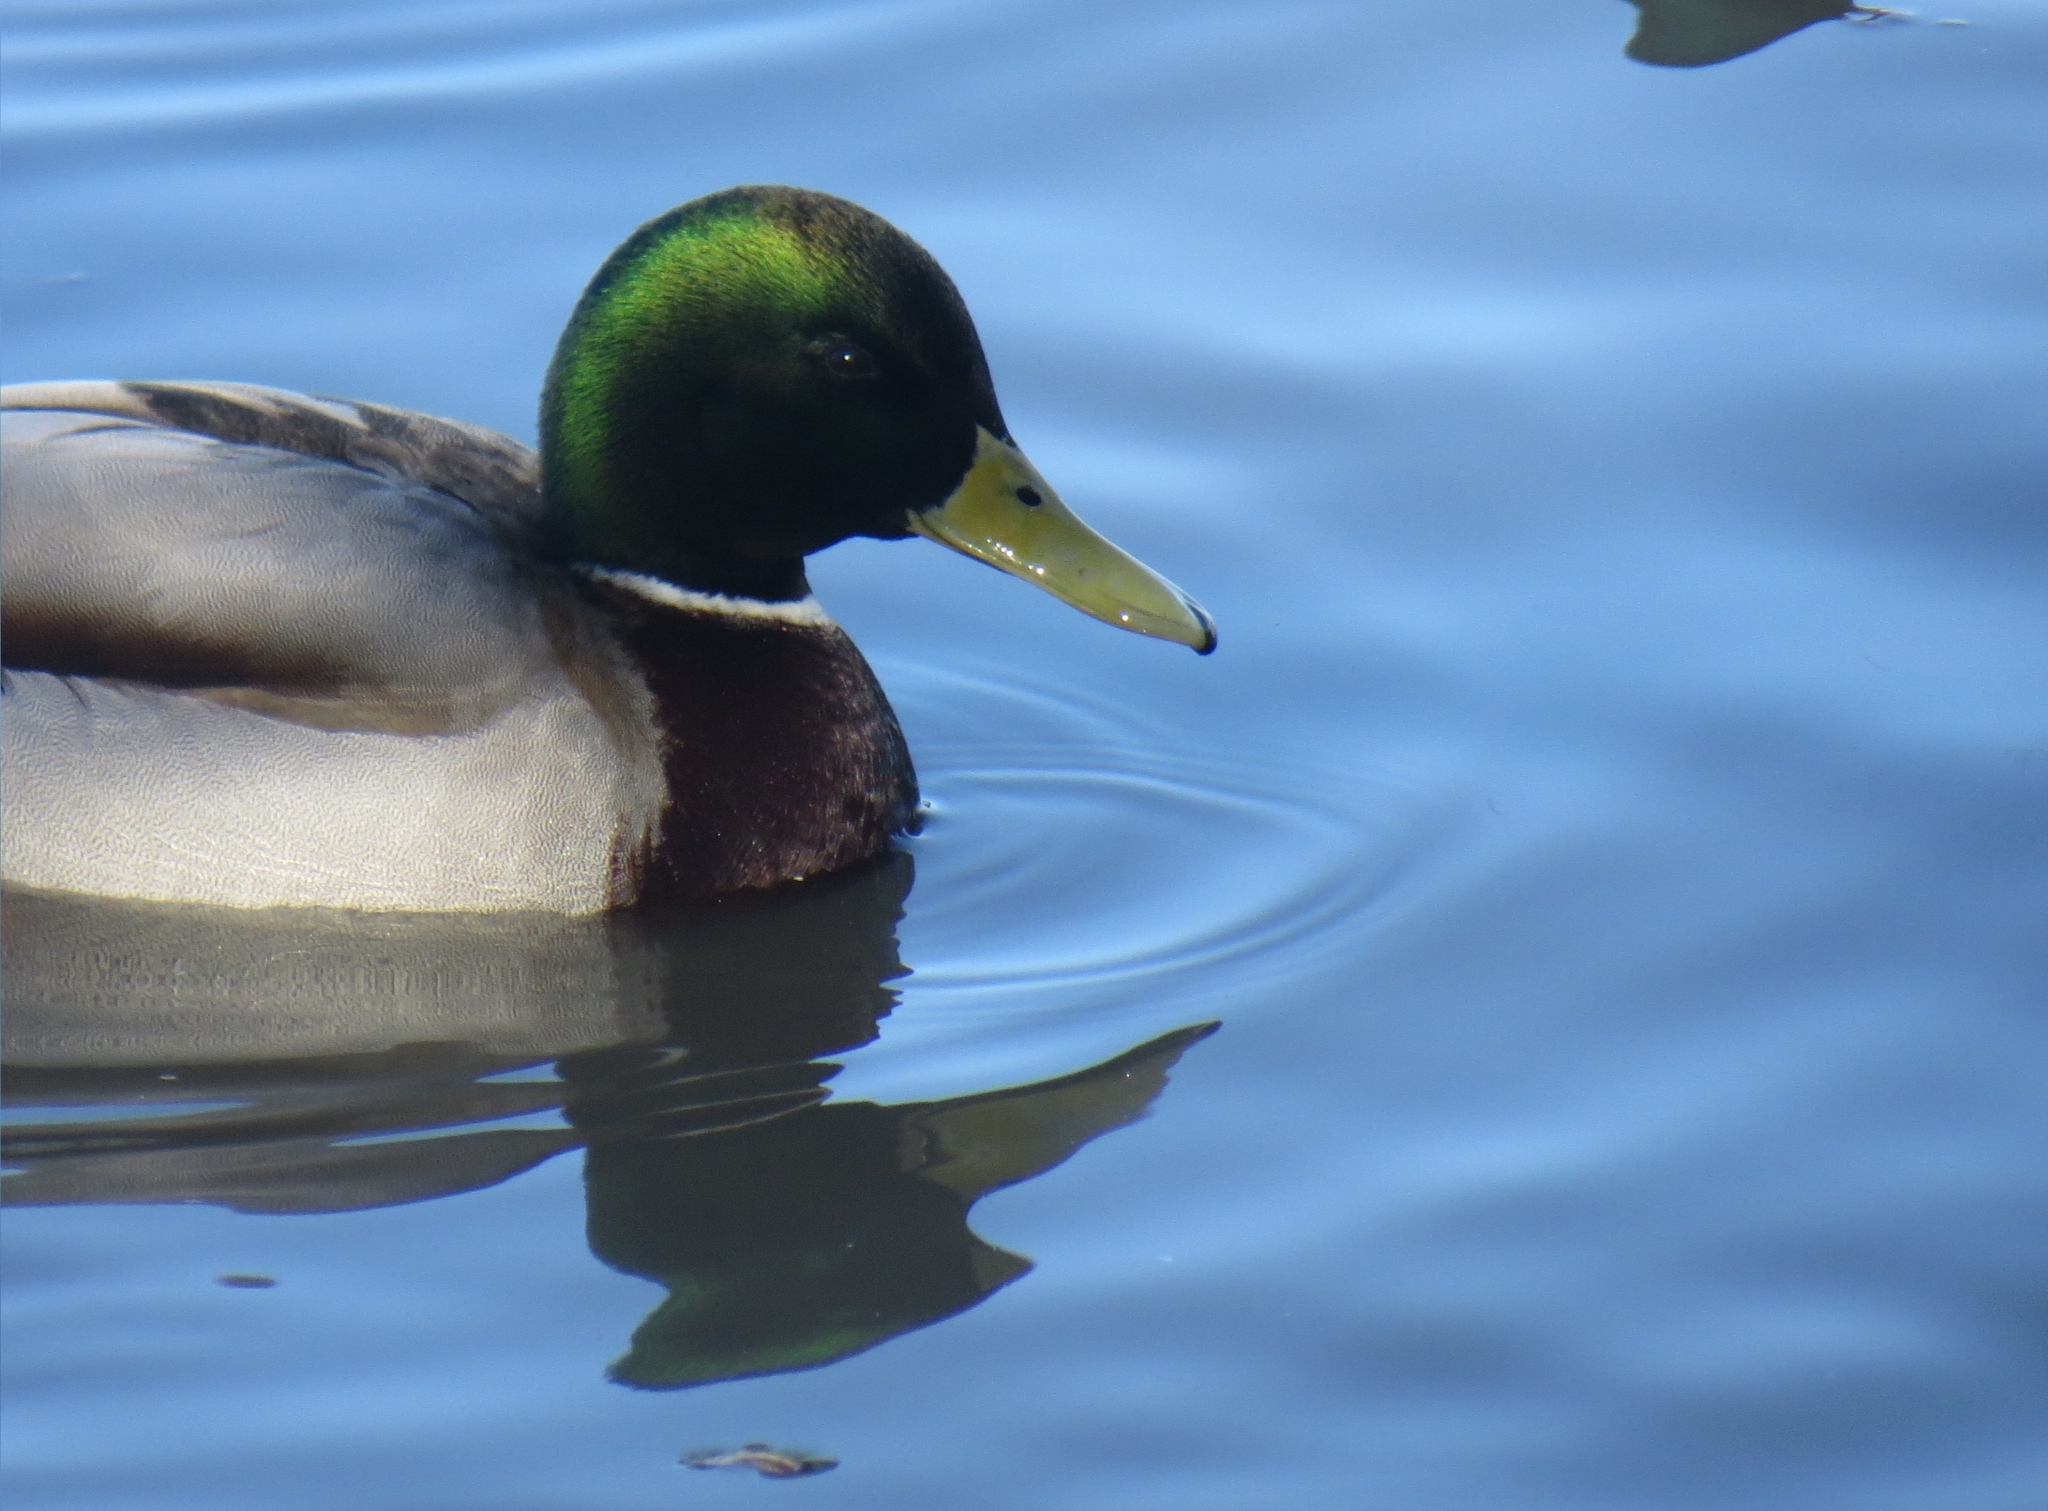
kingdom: Animalia
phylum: Chordata
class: Aves
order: Anseriformes
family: Anatidae
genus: Anas
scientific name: Anas platyrhynchos
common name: Mallard
